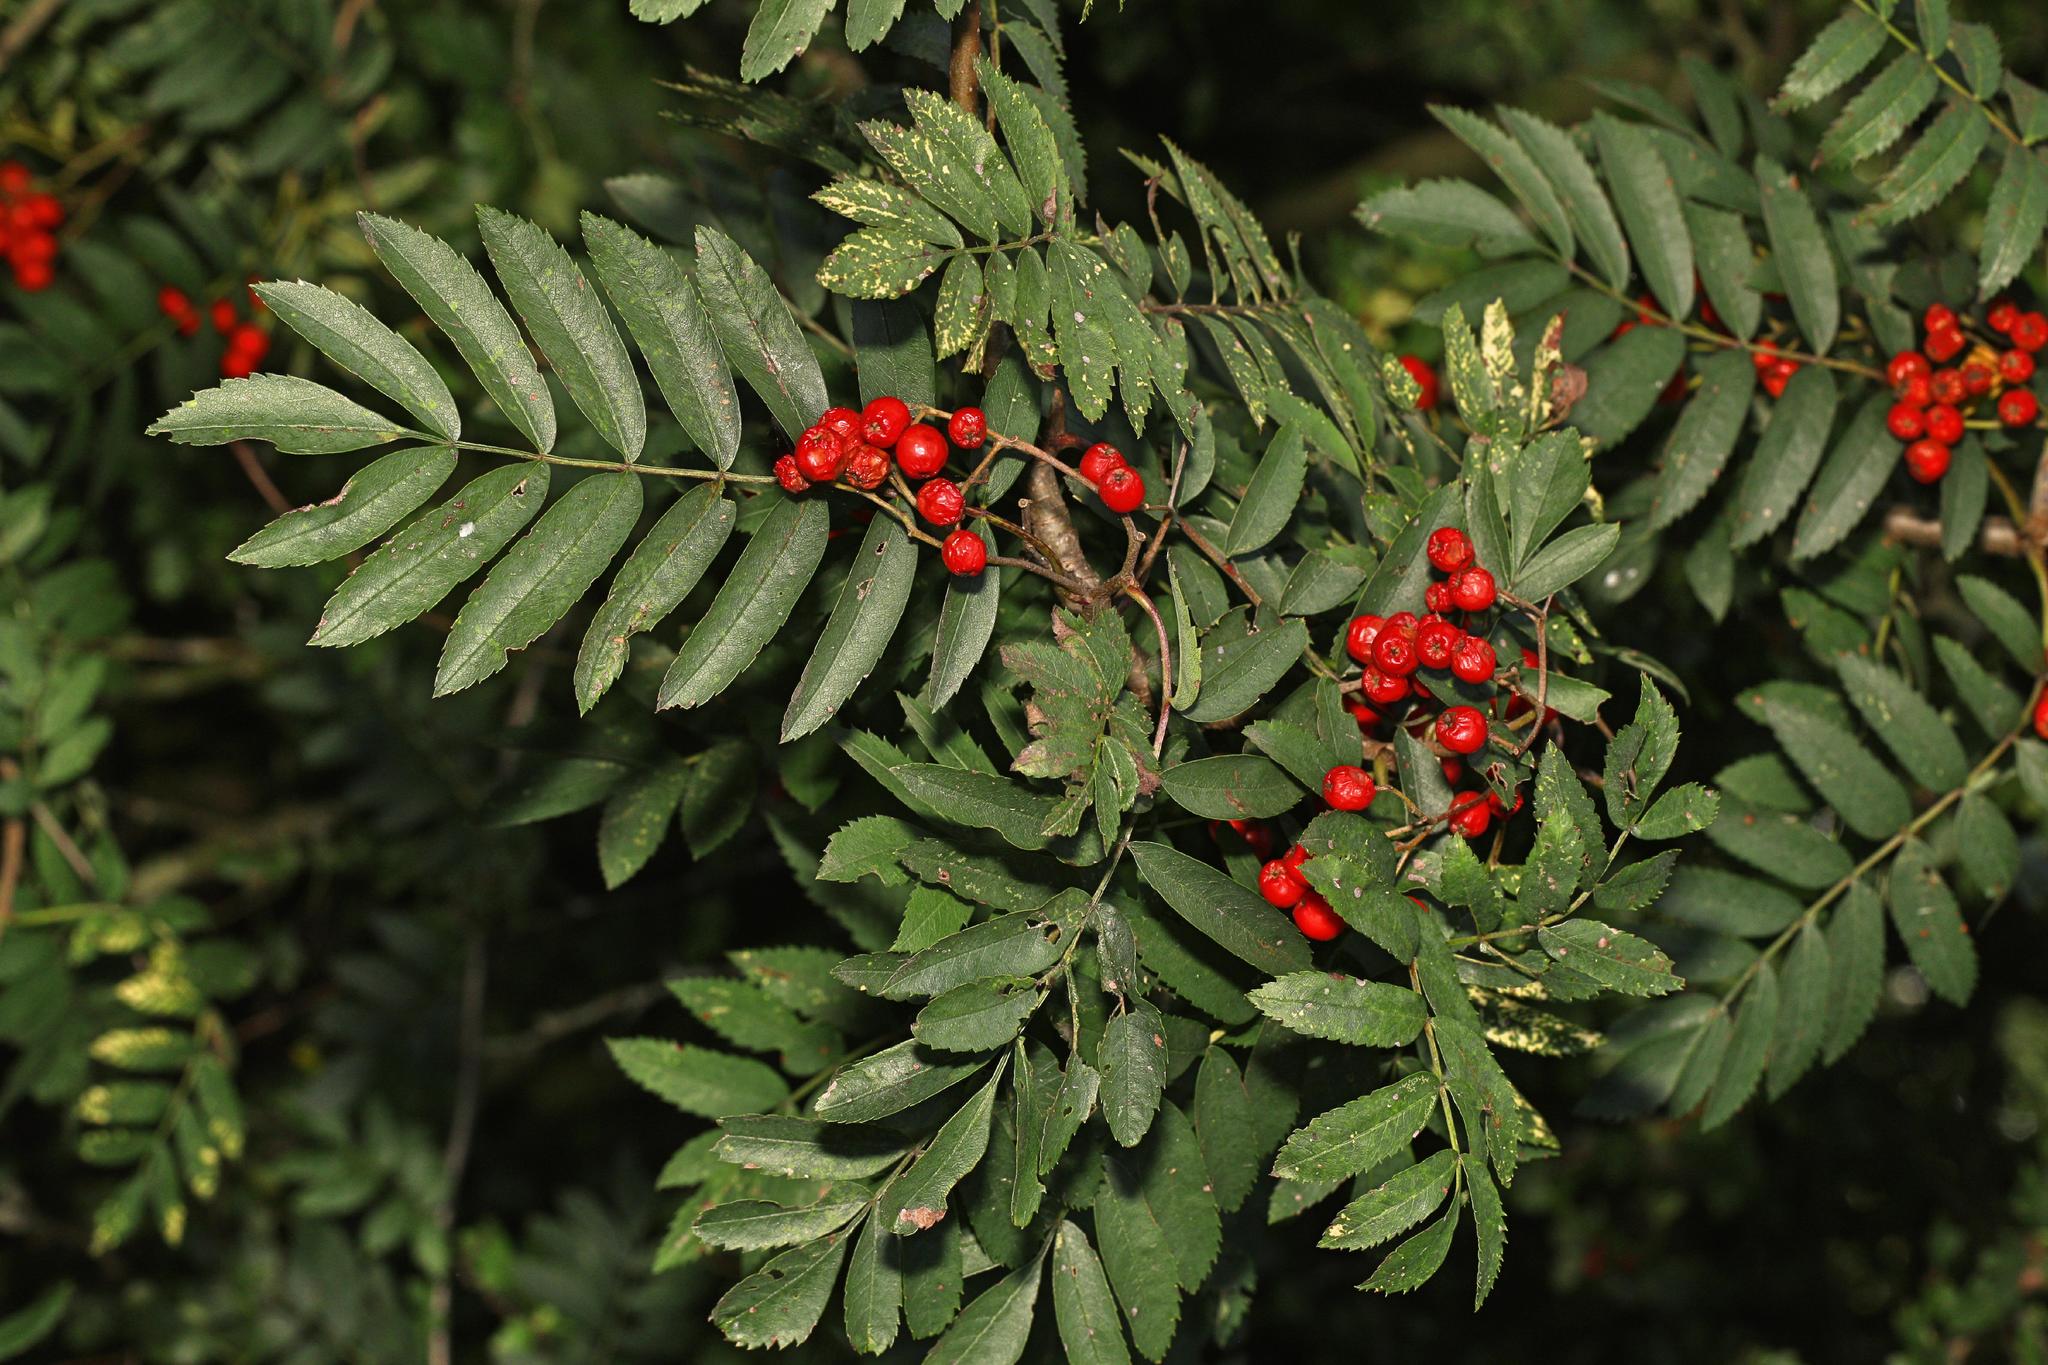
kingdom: Plantae
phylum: Tracheophyta
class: Magnoliopsida
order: Rosales
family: Rosaceae
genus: Sorbus
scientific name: Sorbus aucuparia
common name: Rowan
